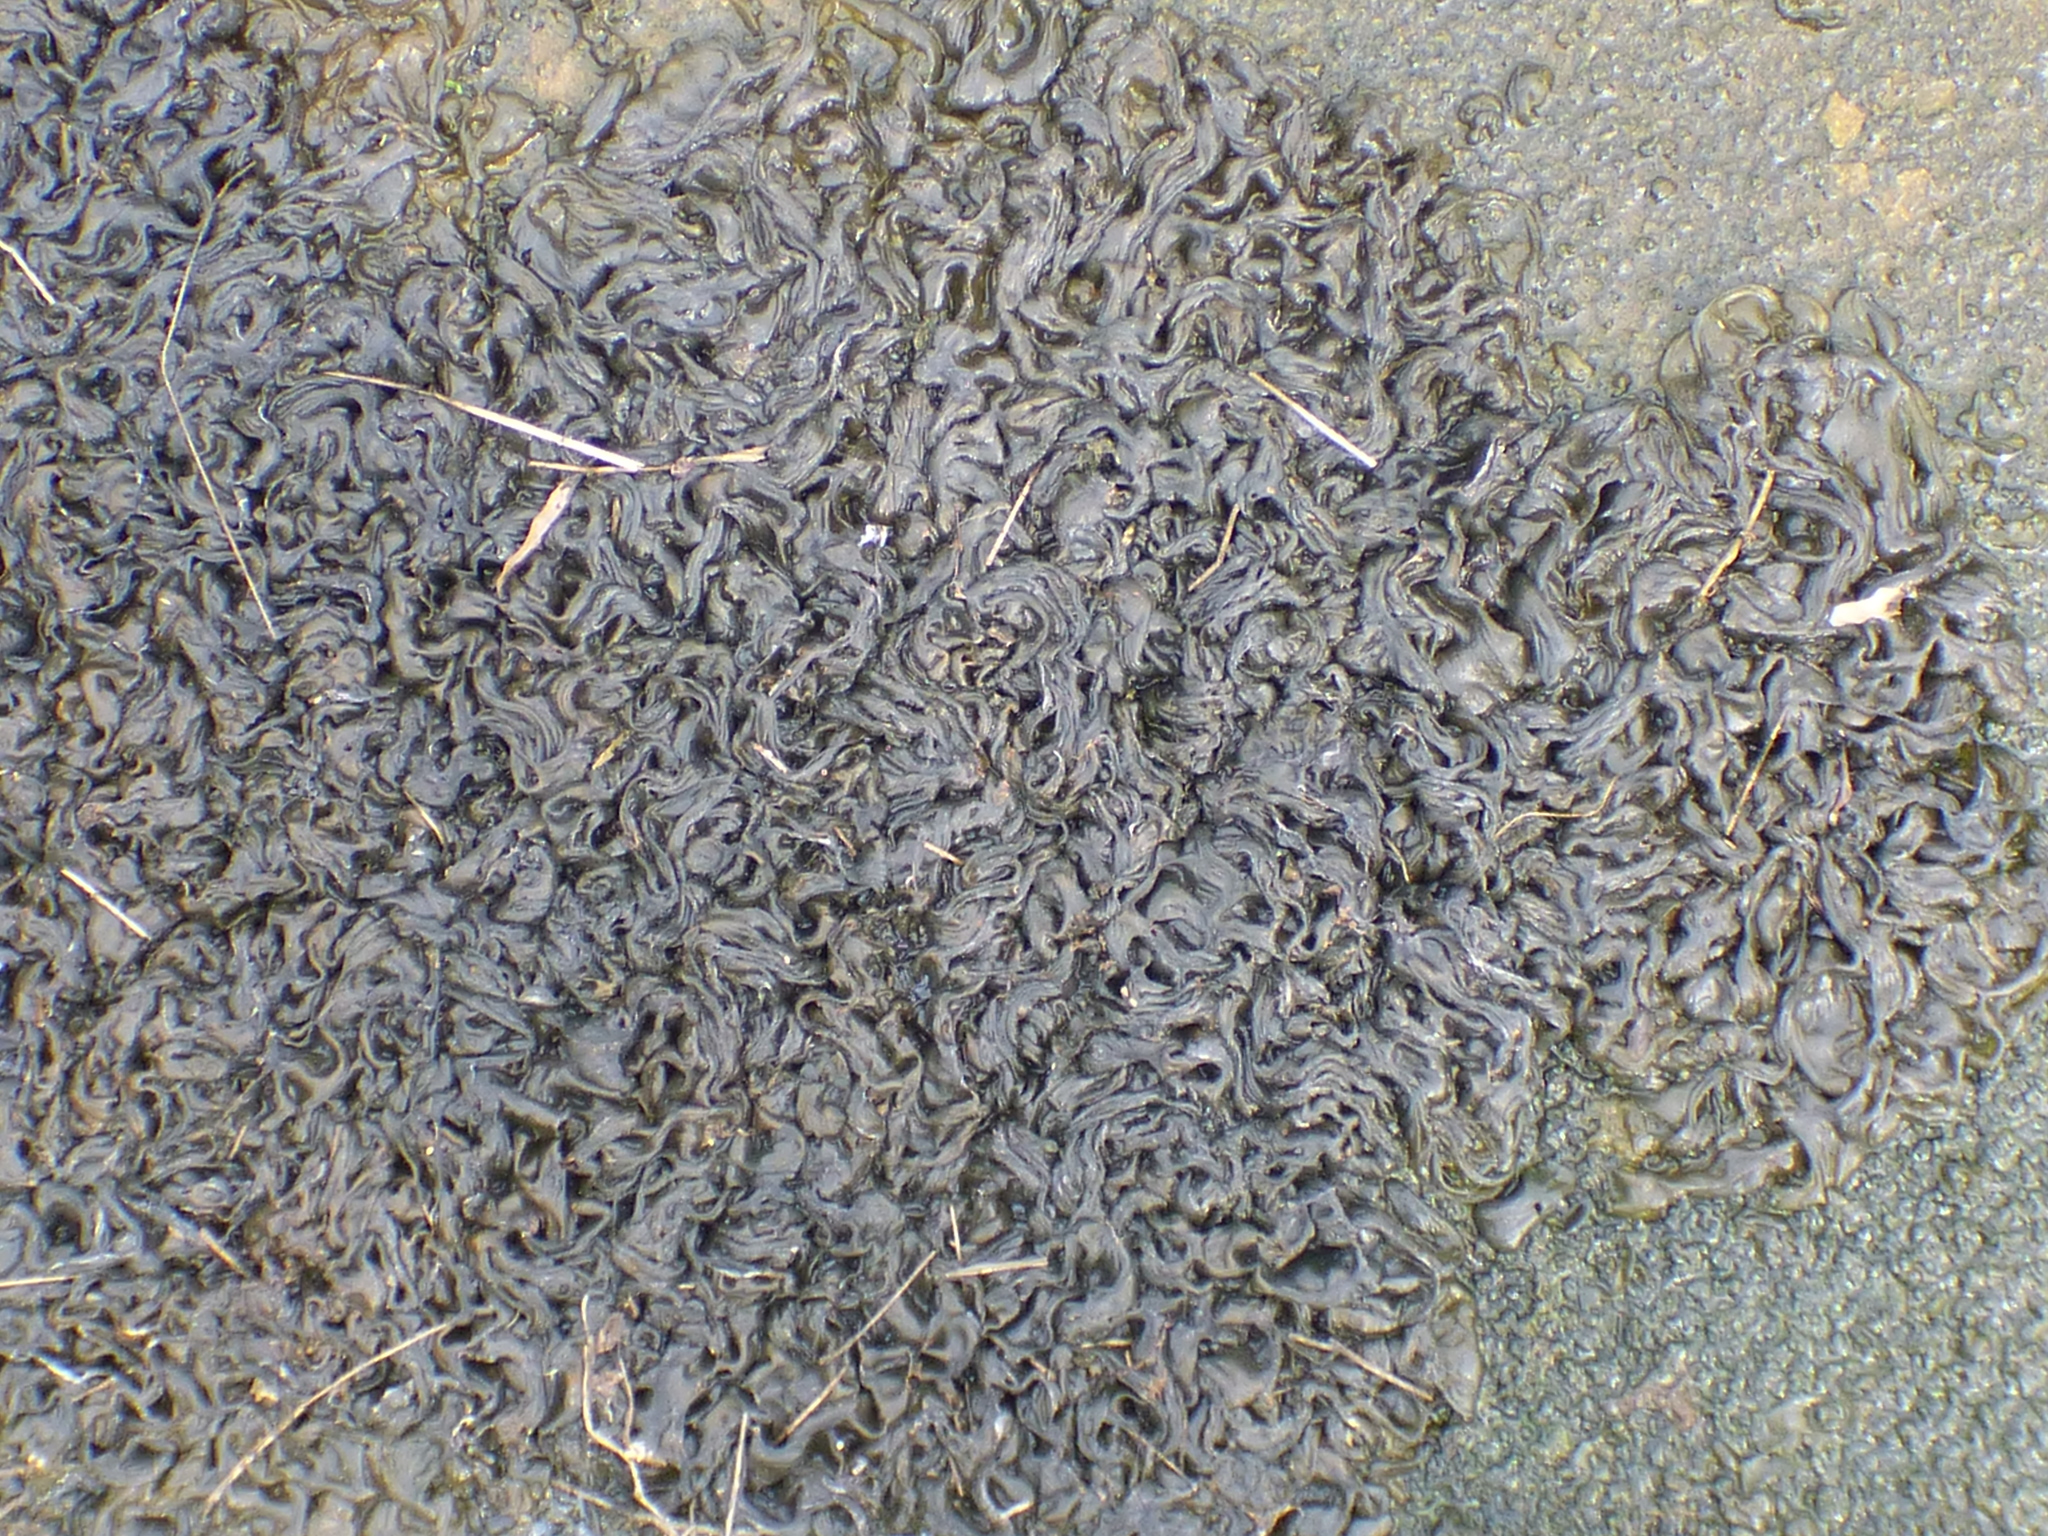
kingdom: Bacteria
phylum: Cyanobacteria
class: Cyanobacteriia
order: Cyanobacteriales
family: Nostocaceae
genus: Nostoc
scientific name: Nostoc commune
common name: Star jelly
